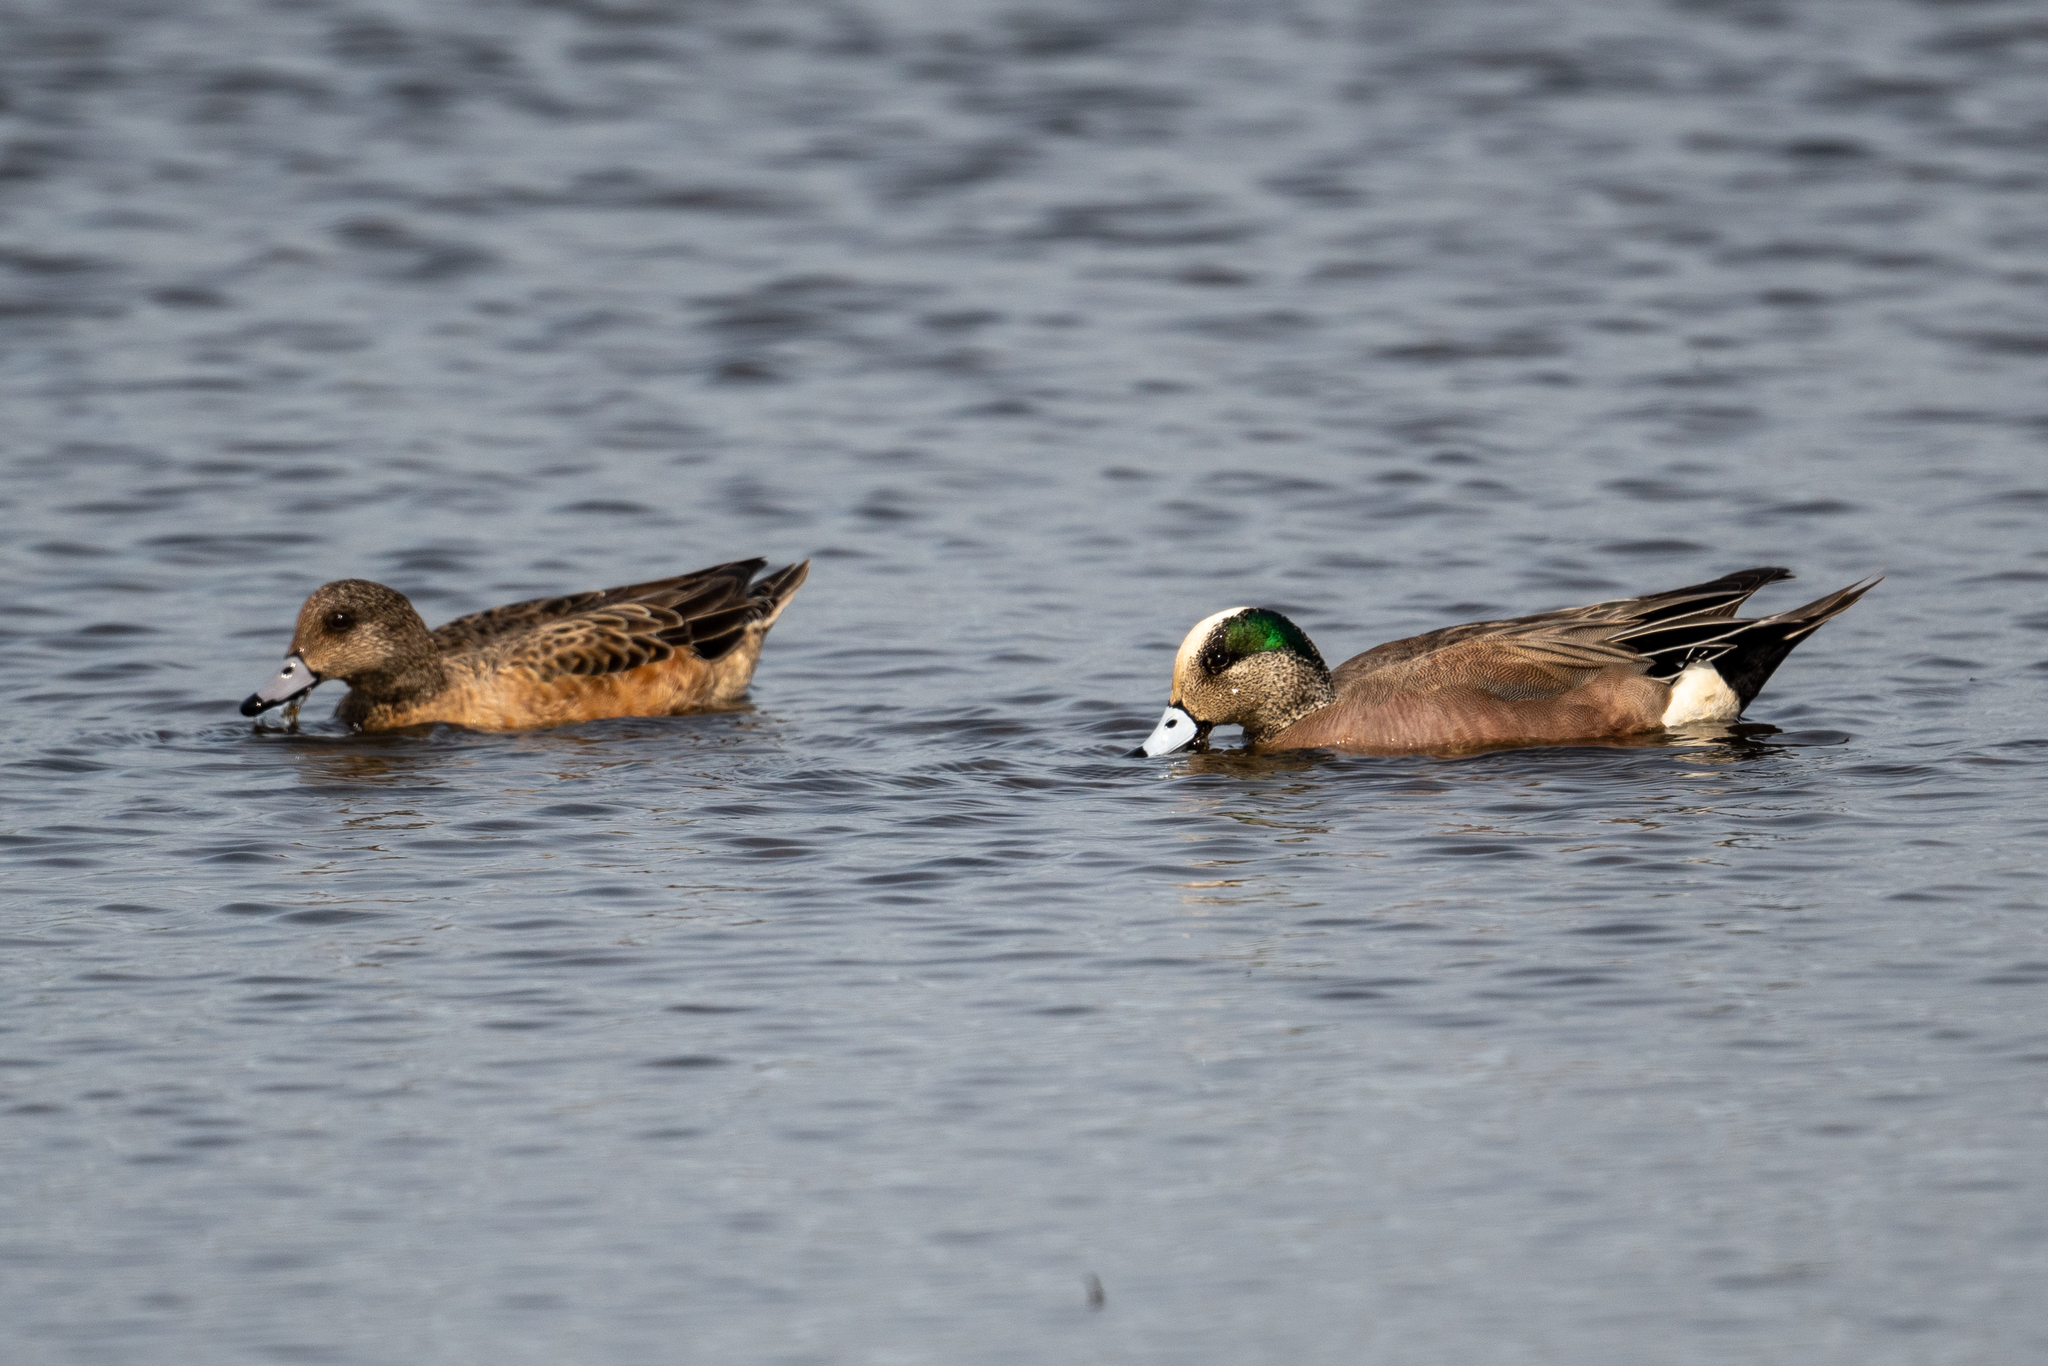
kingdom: Animalia
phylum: Chordata
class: Aves
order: Anseriformes
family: Anatidae
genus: Mareca
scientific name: Mareca americana
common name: American wigeon
